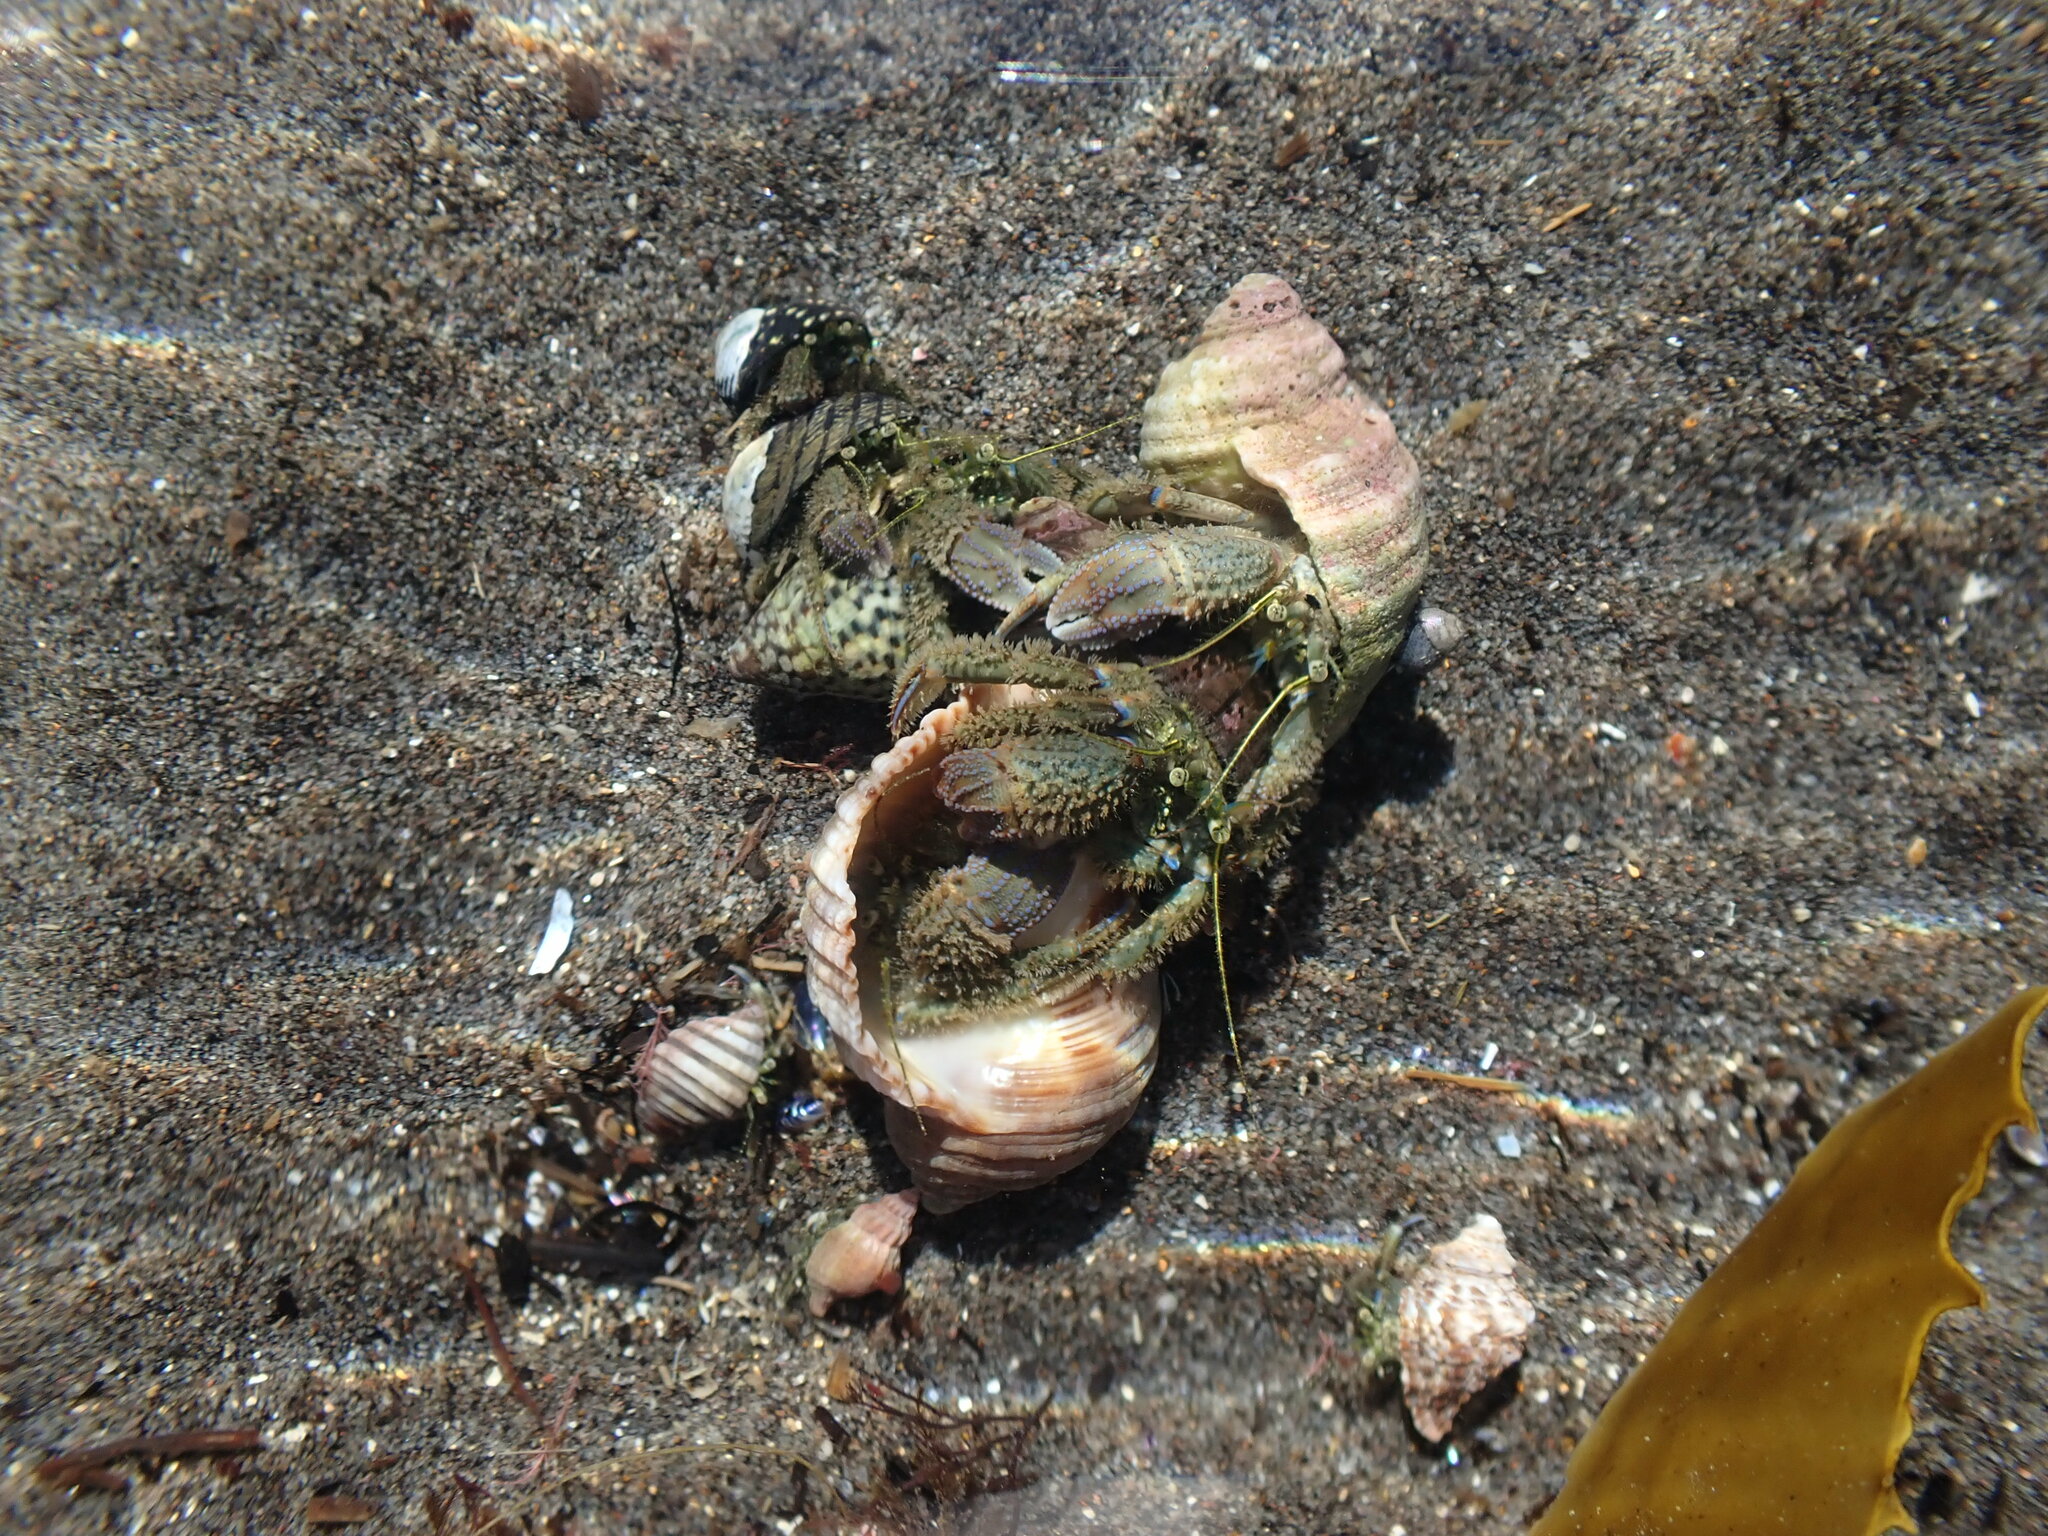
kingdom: Animalia
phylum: Arthropoda
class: Malacostraca
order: Decapoda
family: Paguridae
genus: Pagurus
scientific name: Pagurus novizealandiae
